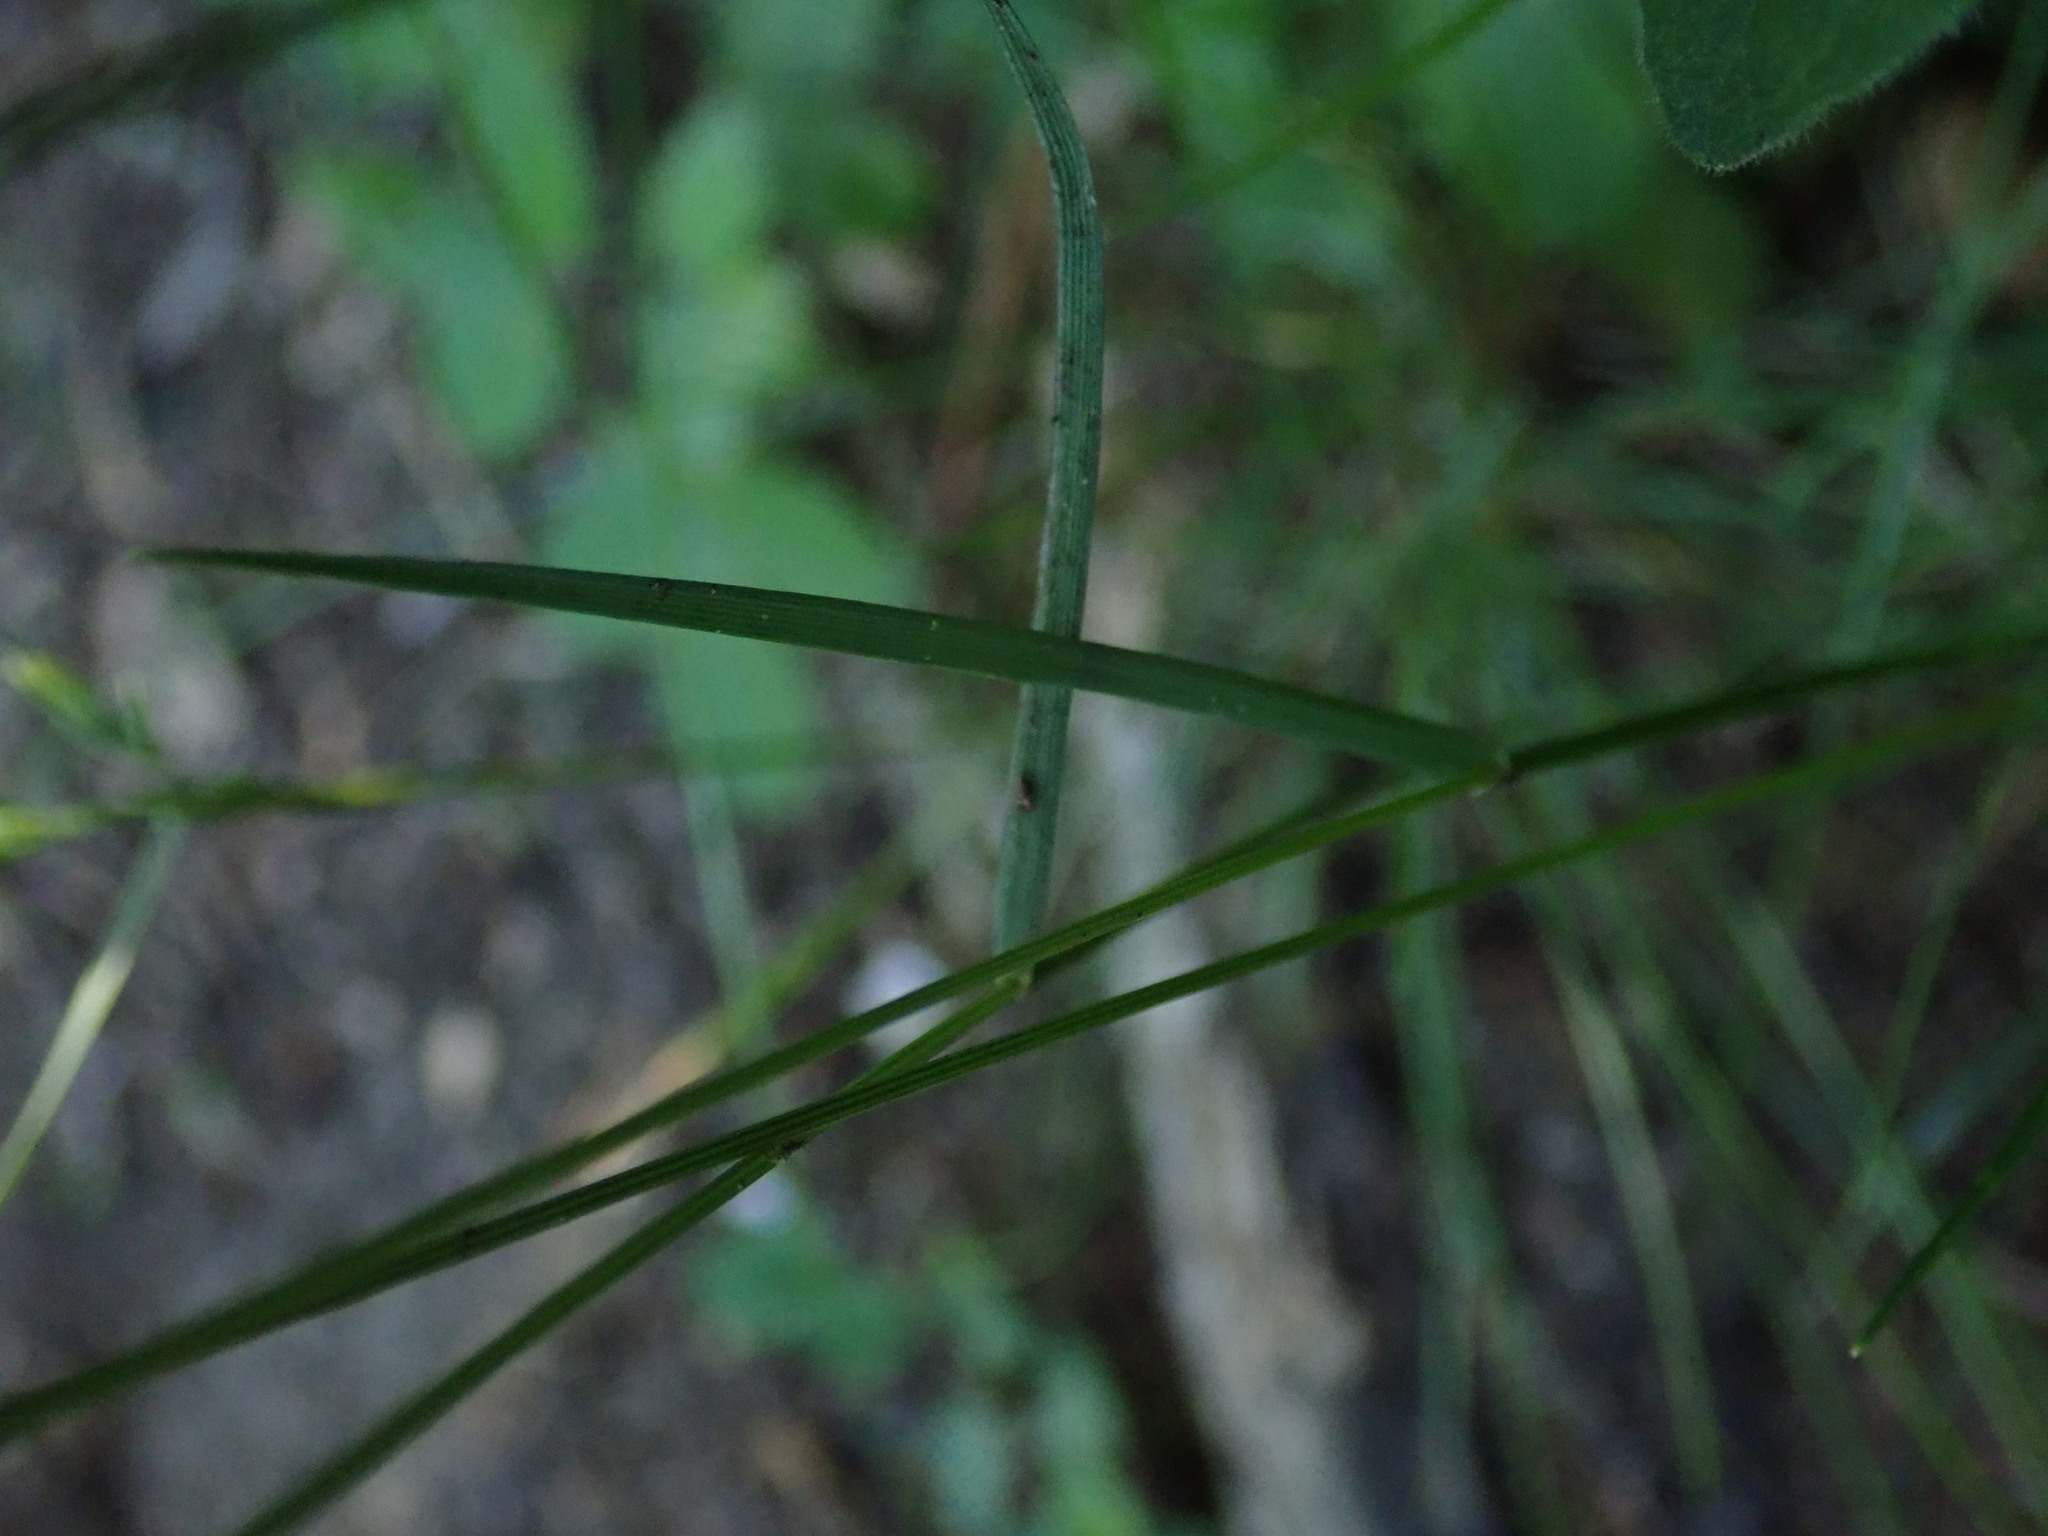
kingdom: Plantae
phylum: Tracheophyta
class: Liliopsida
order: Poales
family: Poaceae
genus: Cynosurus
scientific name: Cynosurus cristatus
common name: Crested dog's-tail
